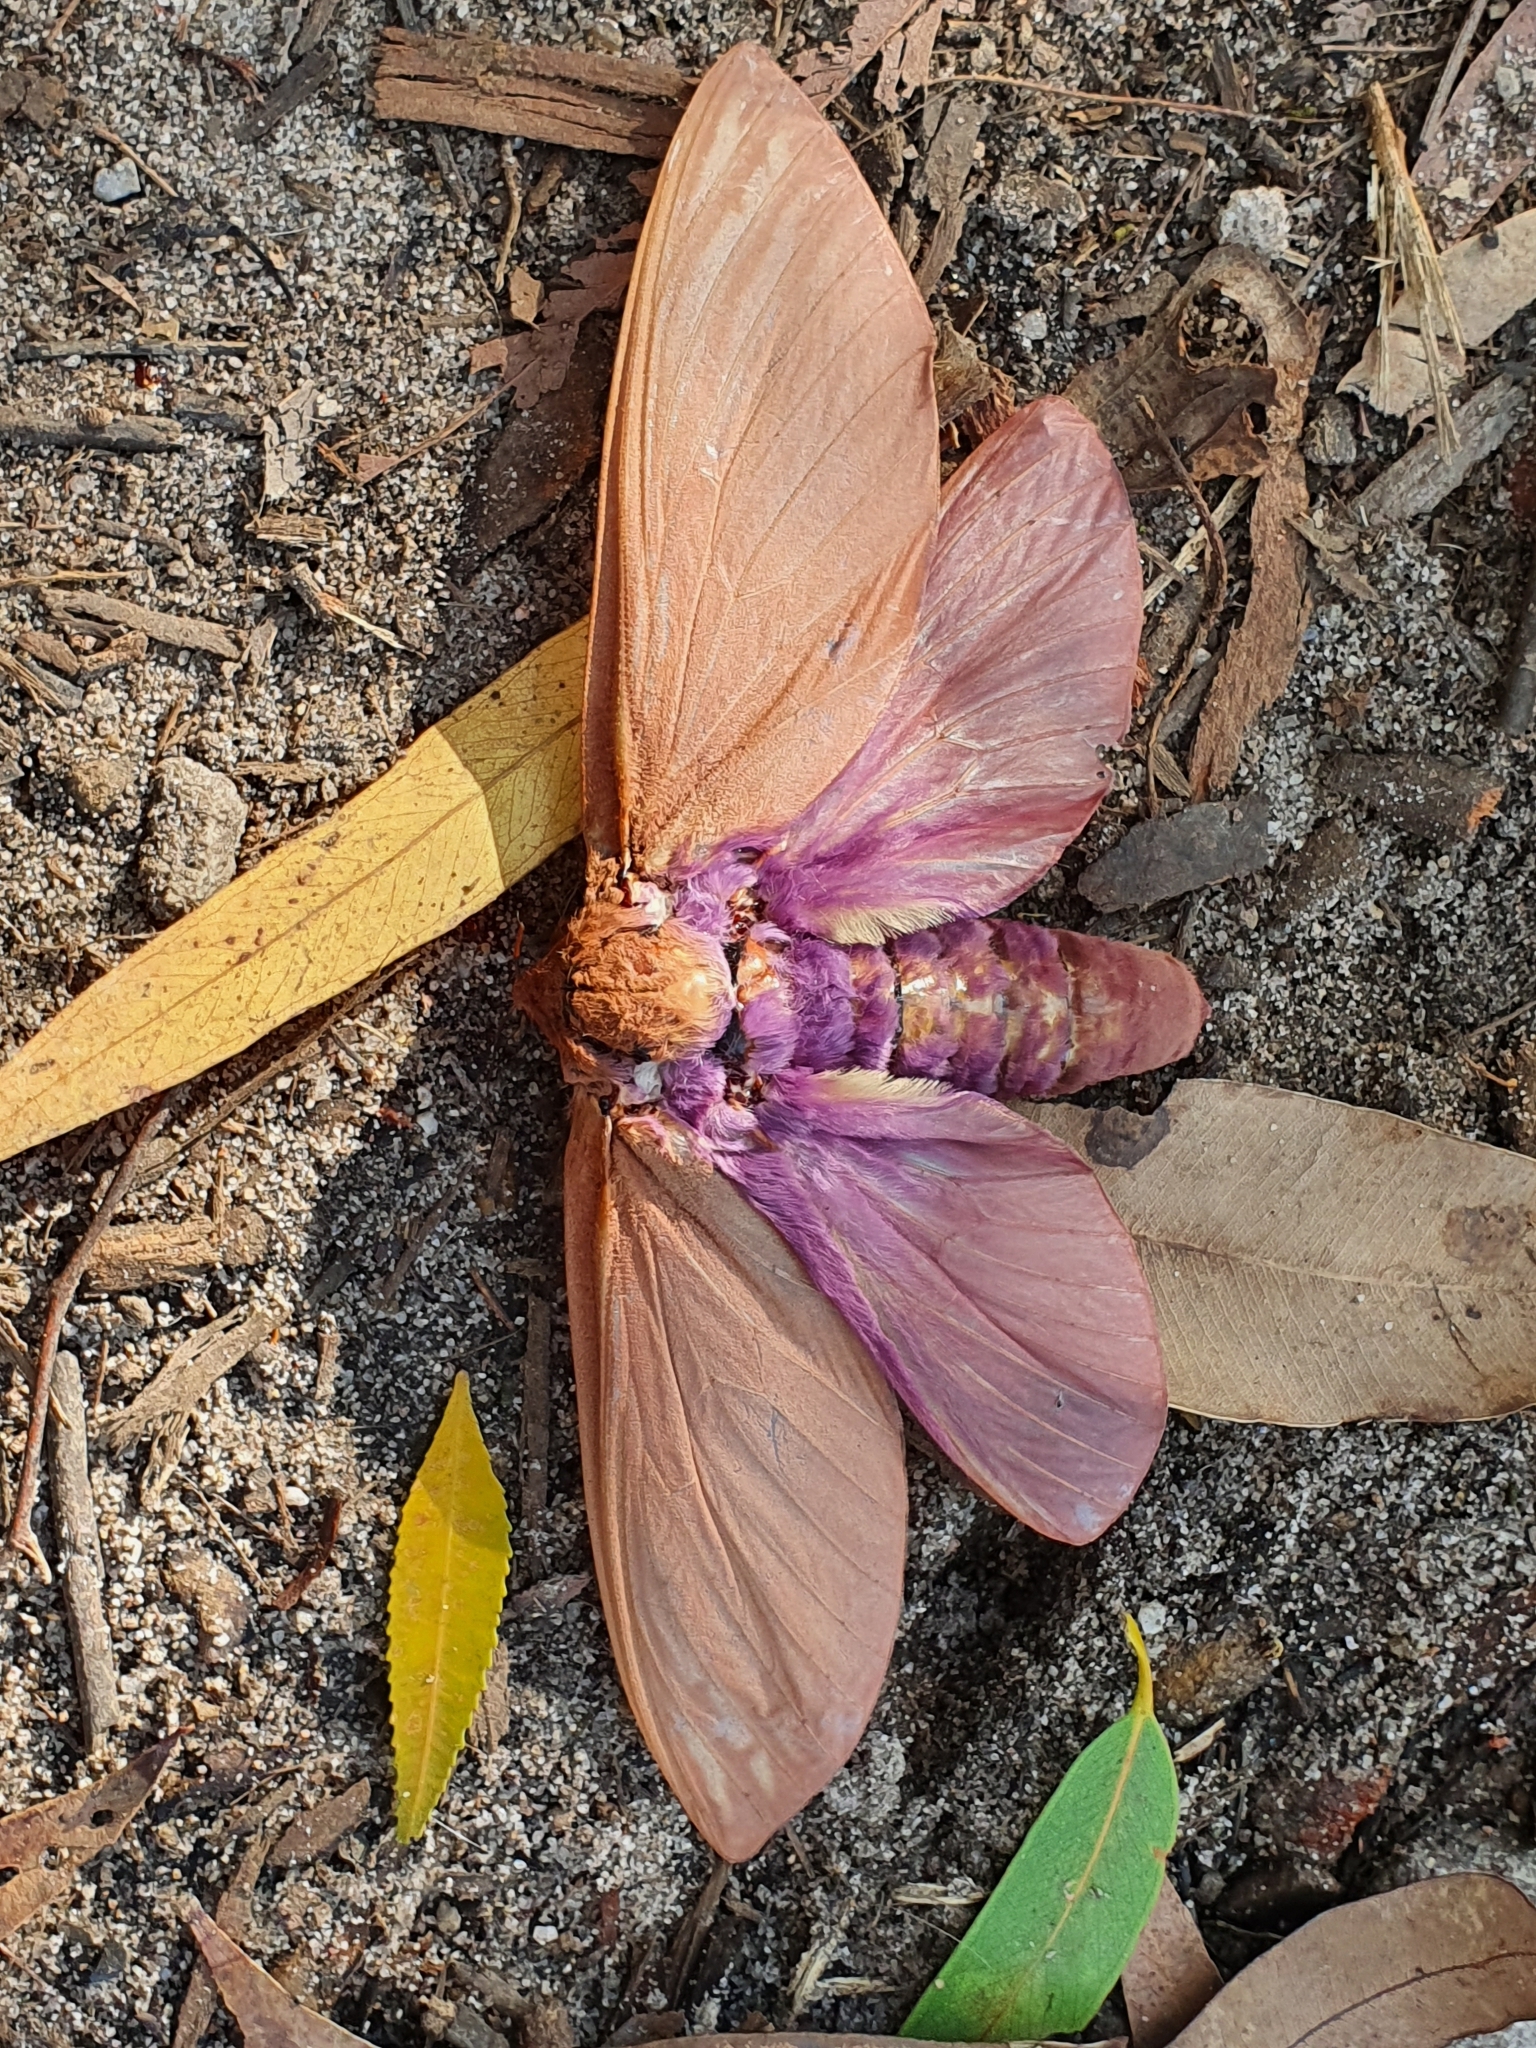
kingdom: Animalia
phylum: Arthropoda
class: Insecta
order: Lepidoptera
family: Hepialidae
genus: Abantiades
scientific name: Abantiades hyalinatus
